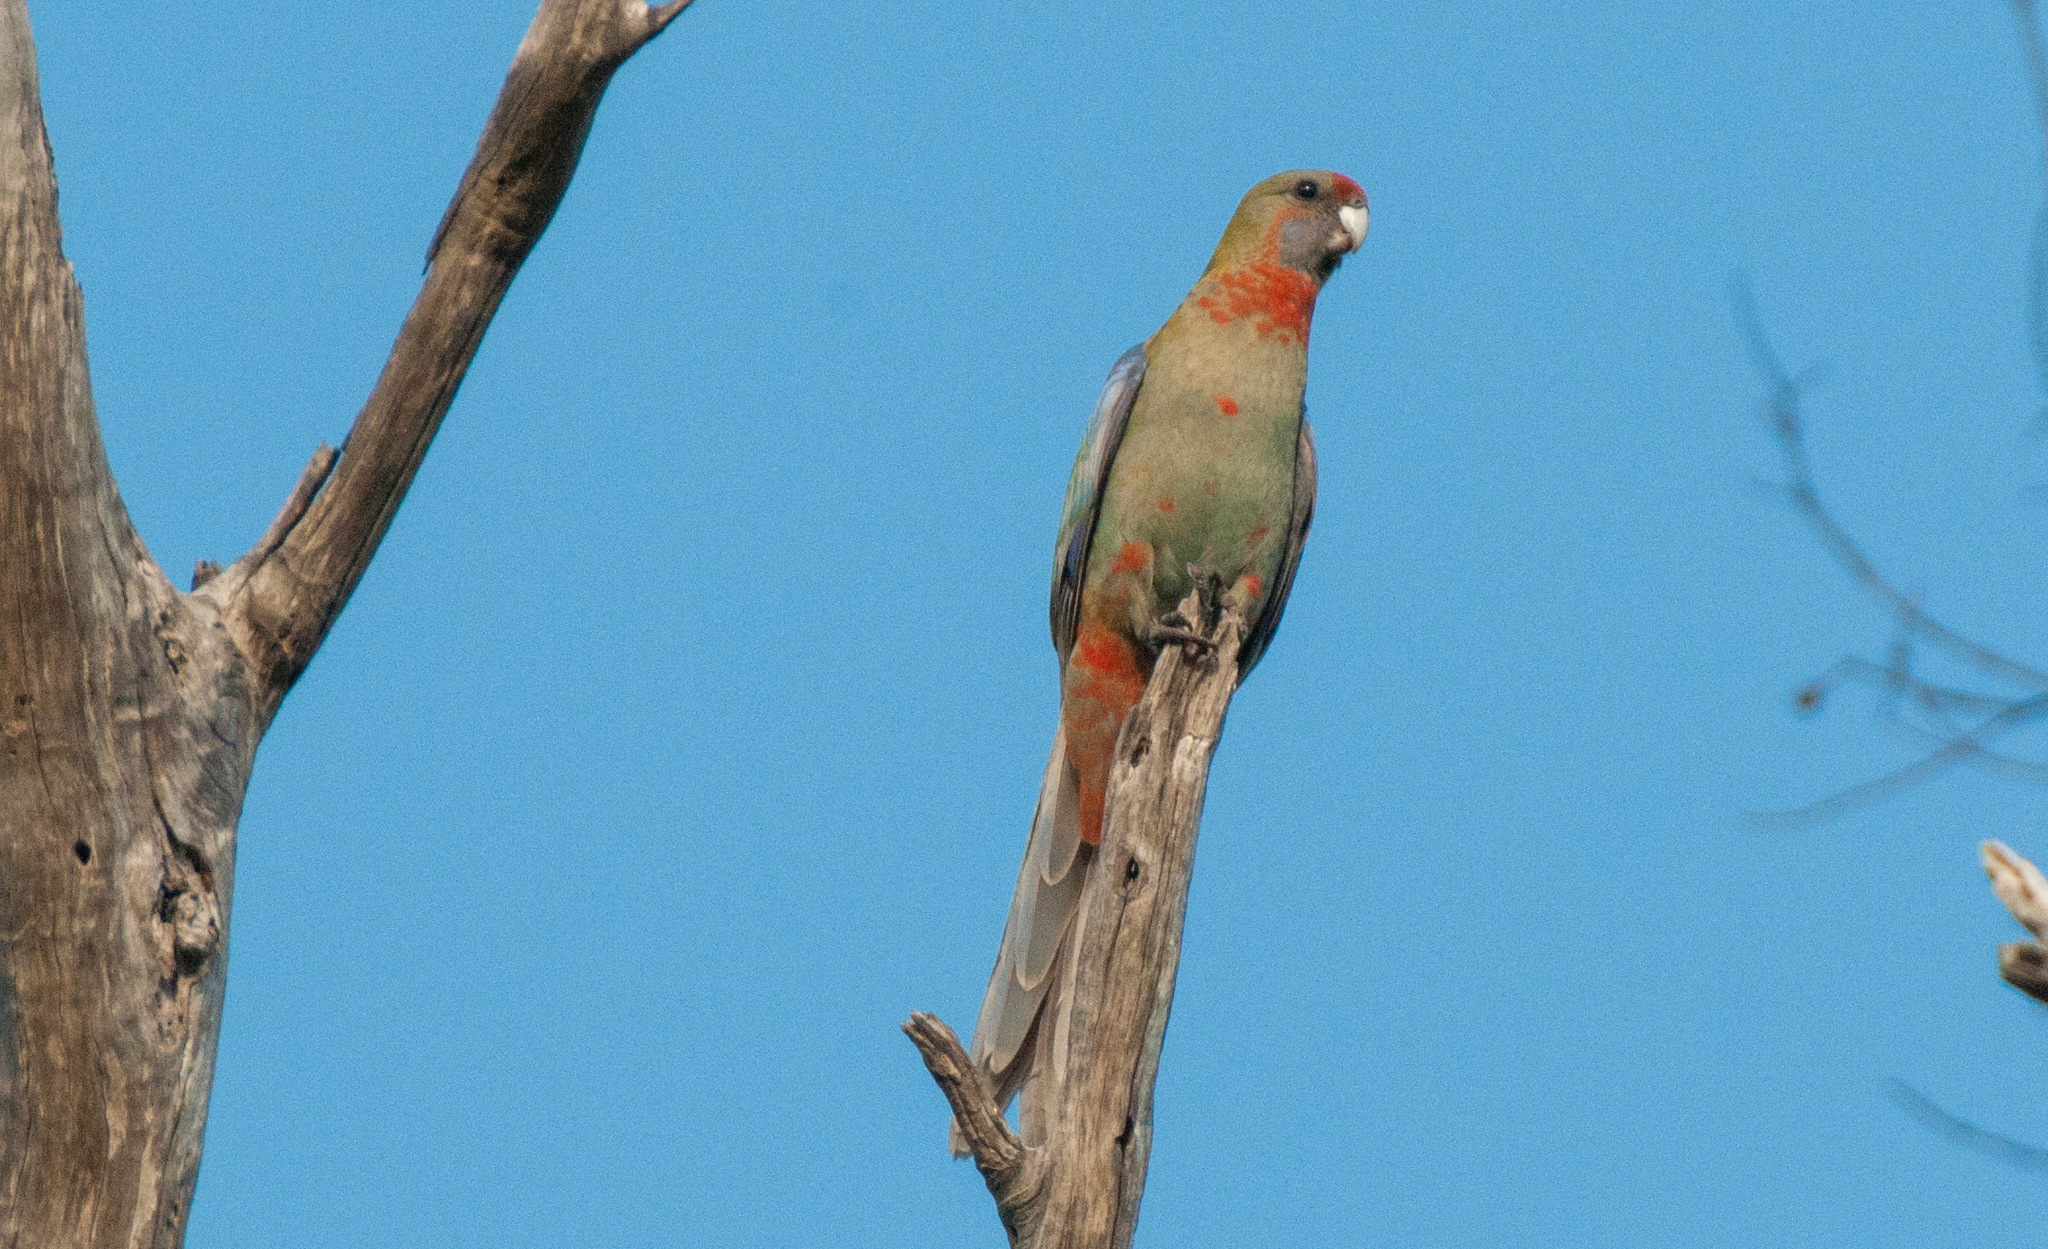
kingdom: Animalia
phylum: Chordata
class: Aves
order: Psittaciformes
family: Psittacidae
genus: Platycercus
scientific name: Platycercus elegans
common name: Crimson rosella
